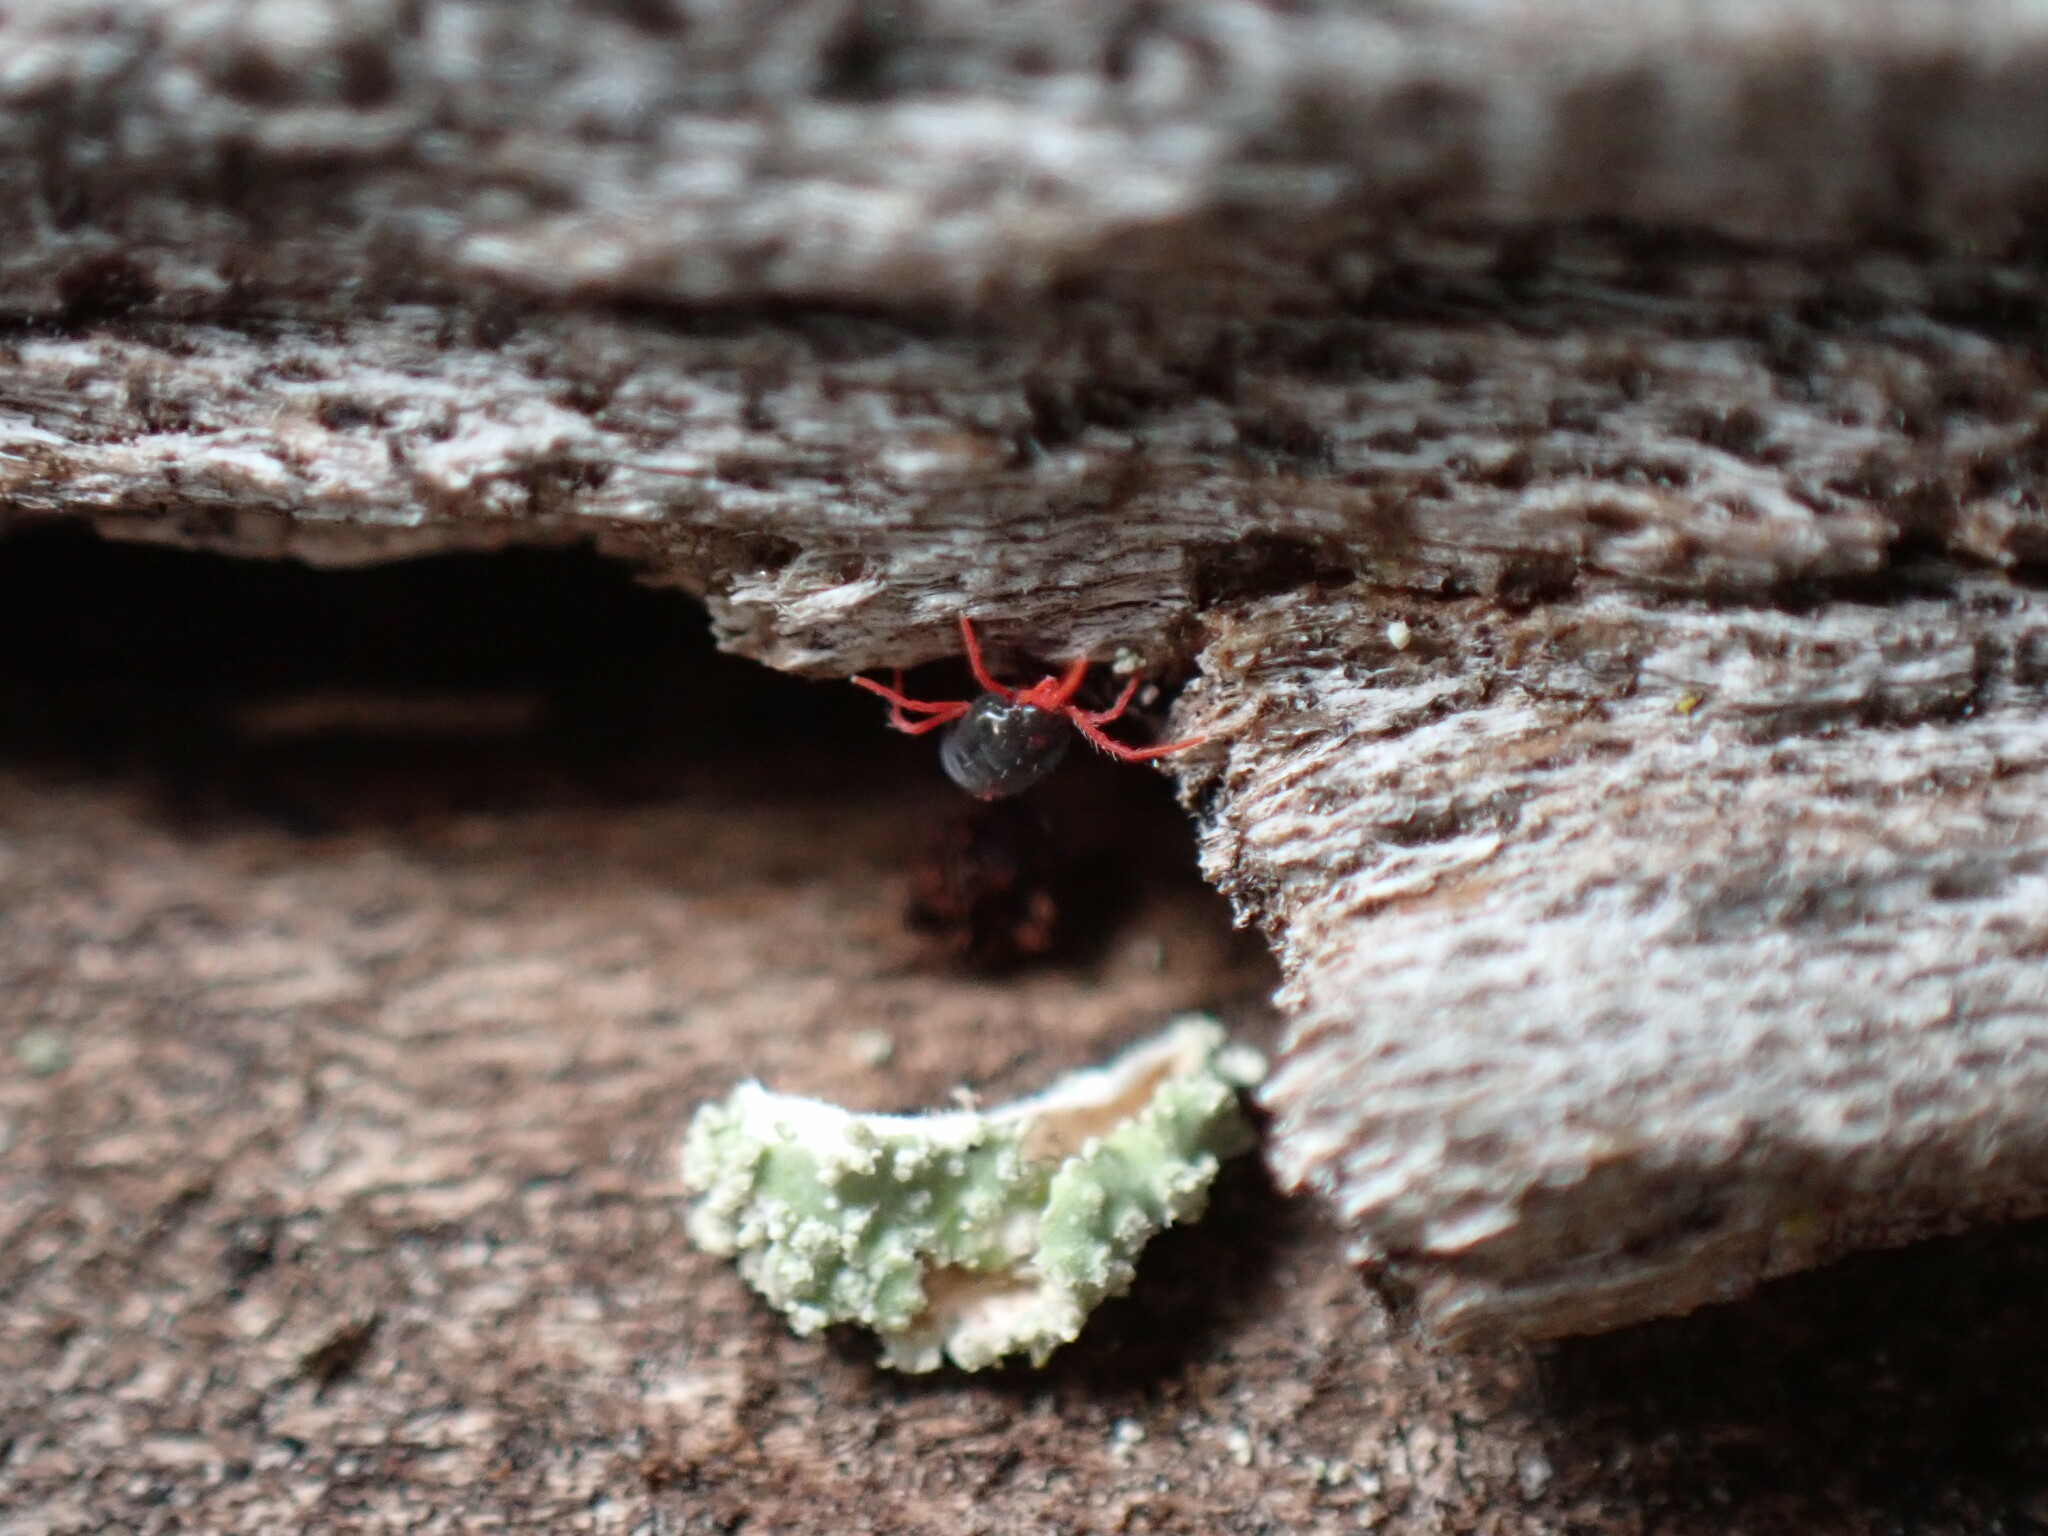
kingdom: Animalia
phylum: Arthropoda
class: Arachnida
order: Trombidiformes
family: Penthaleidae
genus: Penthaleus
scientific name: Penthaleus major
